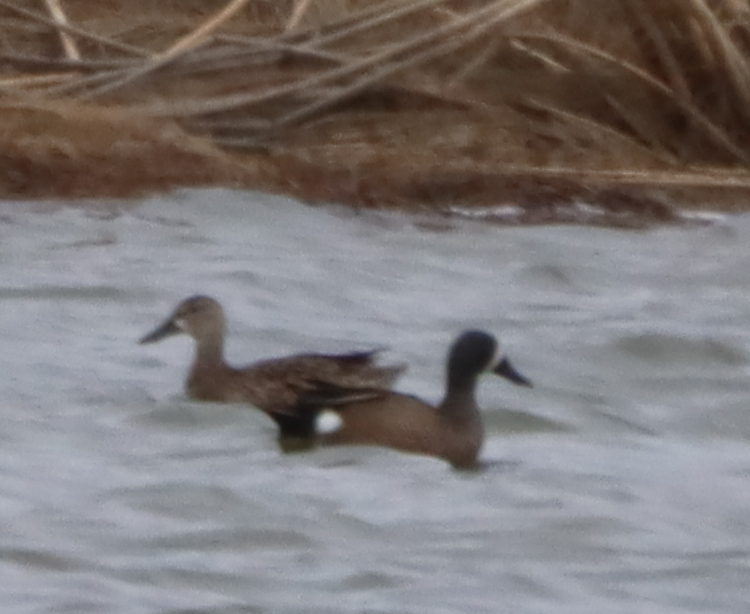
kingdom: Animalia
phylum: Chordata
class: Aves
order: Anseriformes
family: Anatidae
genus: Spatula
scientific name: Spatula discors
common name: Blue-winged teal
